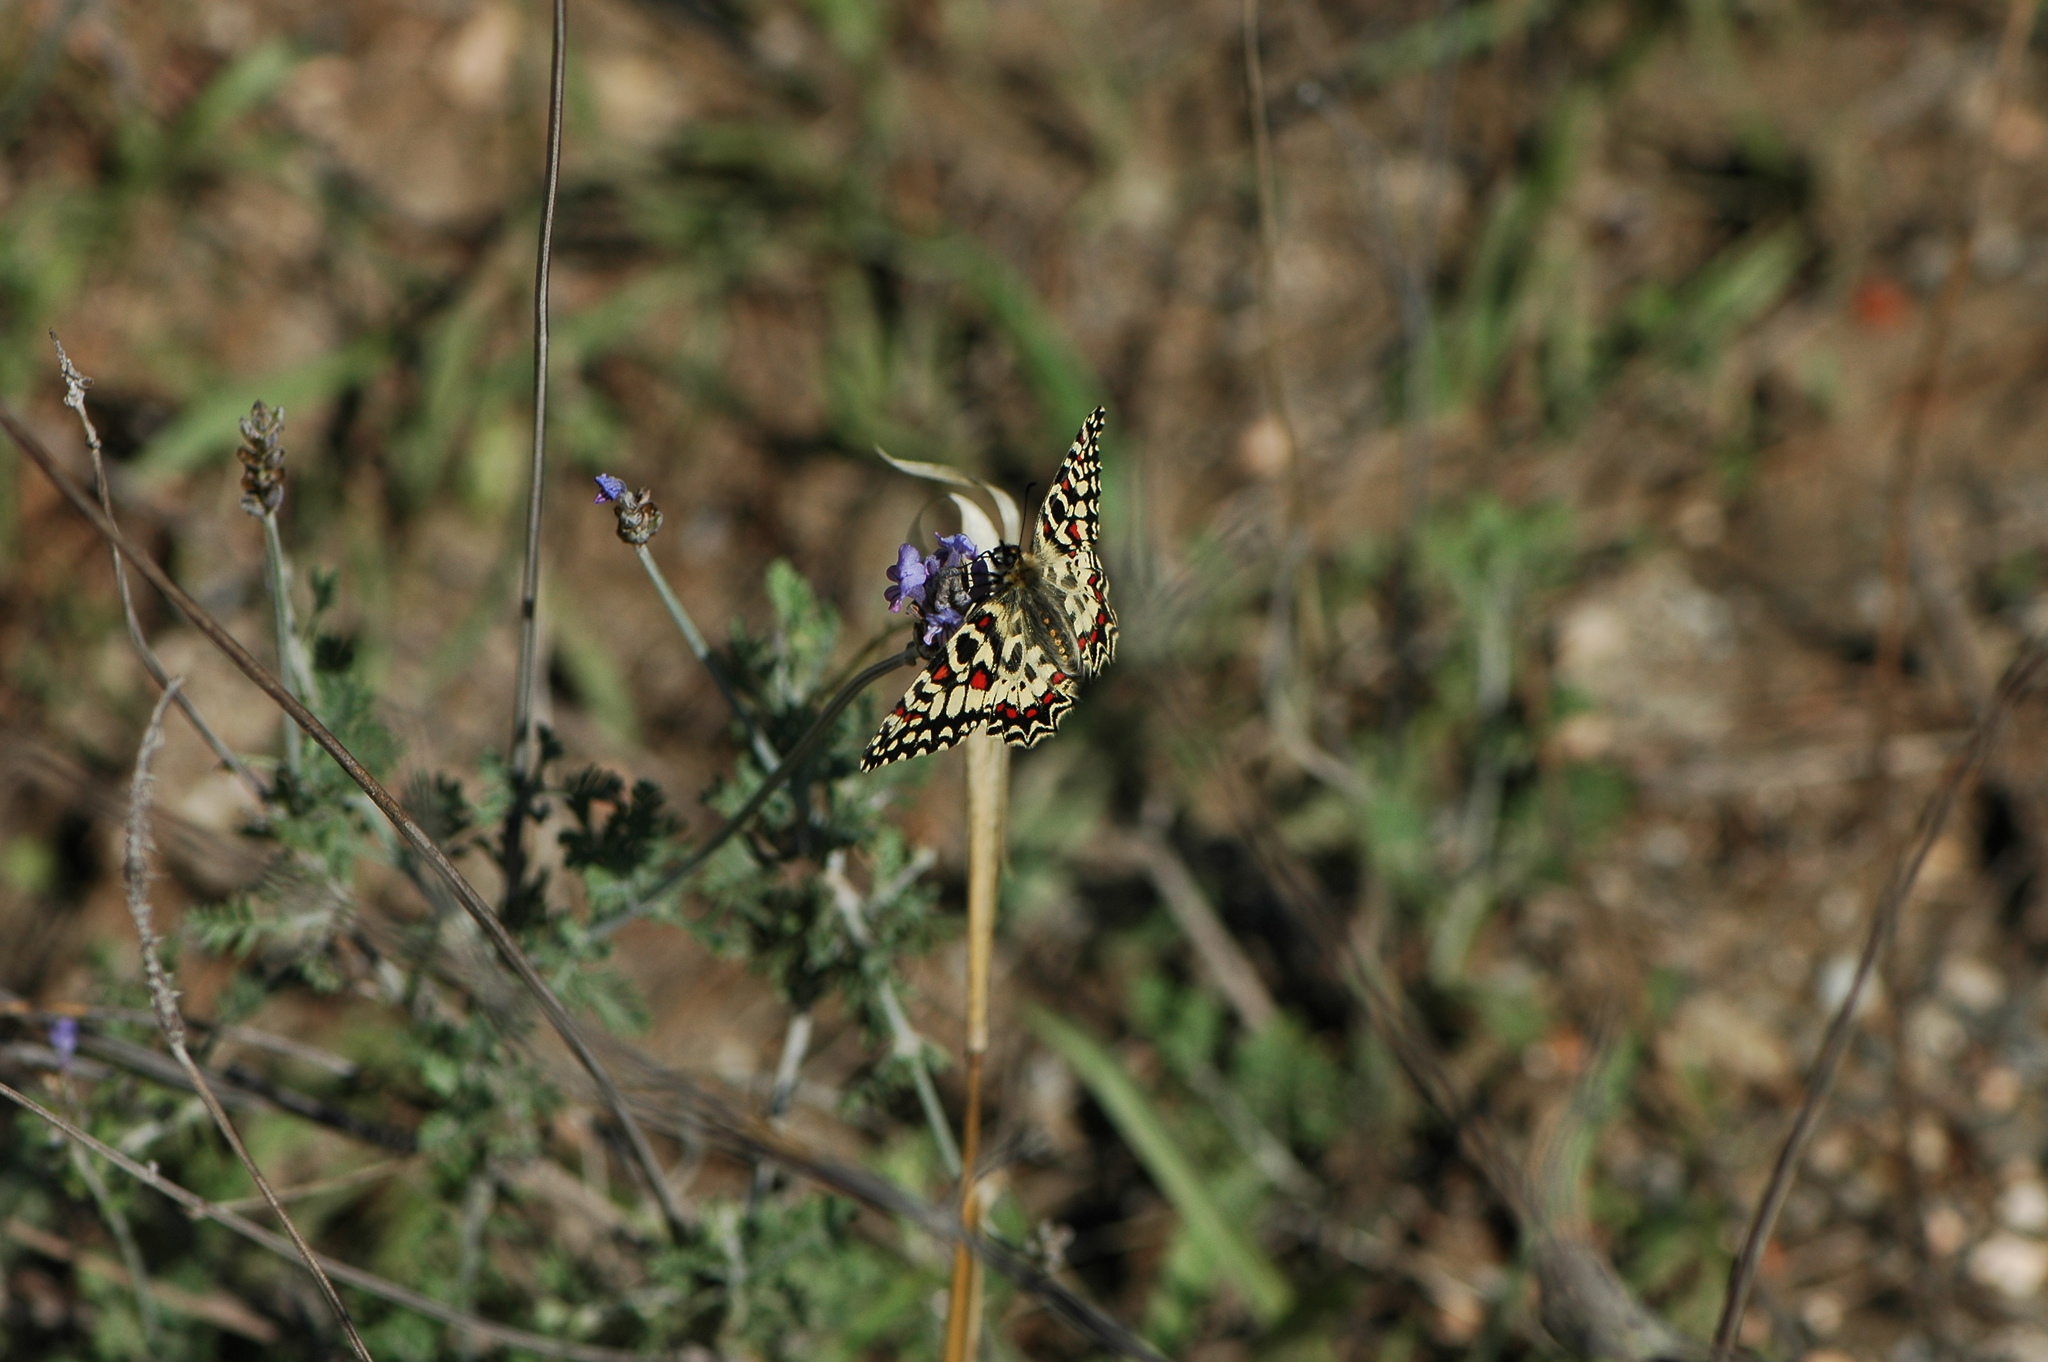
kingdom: Animalia
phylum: Arthropoda
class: Insecta
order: Lepidoptera
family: Papilionidae
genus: Zerynthia
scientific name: Zerynthia rumina
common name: Spanish festoon
